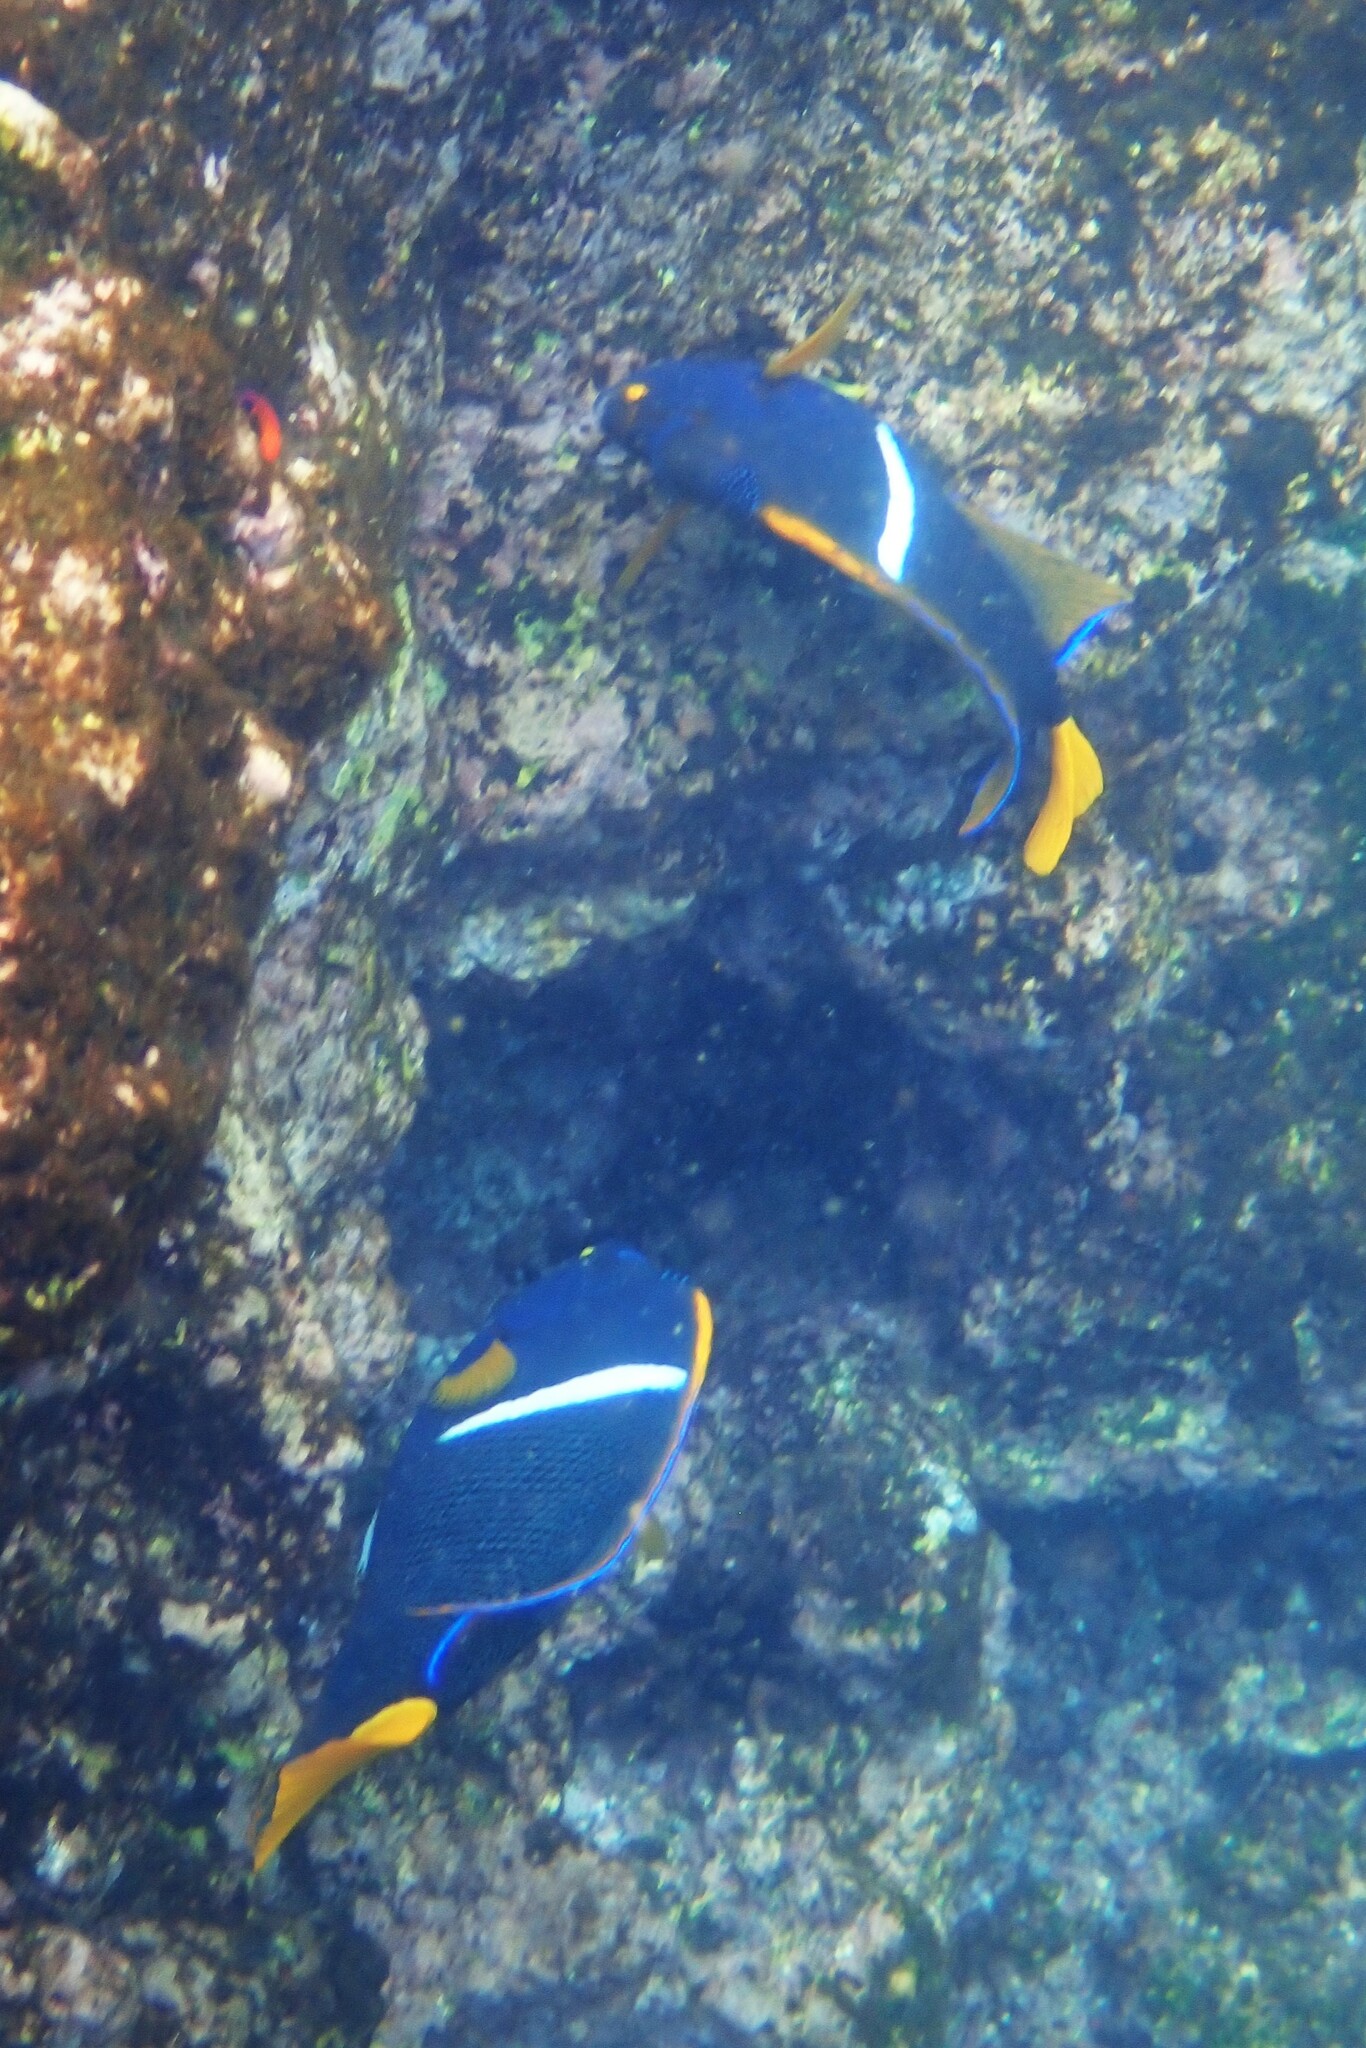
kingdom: Animalia
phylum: Chordata
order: Perciformes
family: Pomacanthidae
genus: Holacanthus
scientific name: Holacanthus passer
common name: King angelfish
